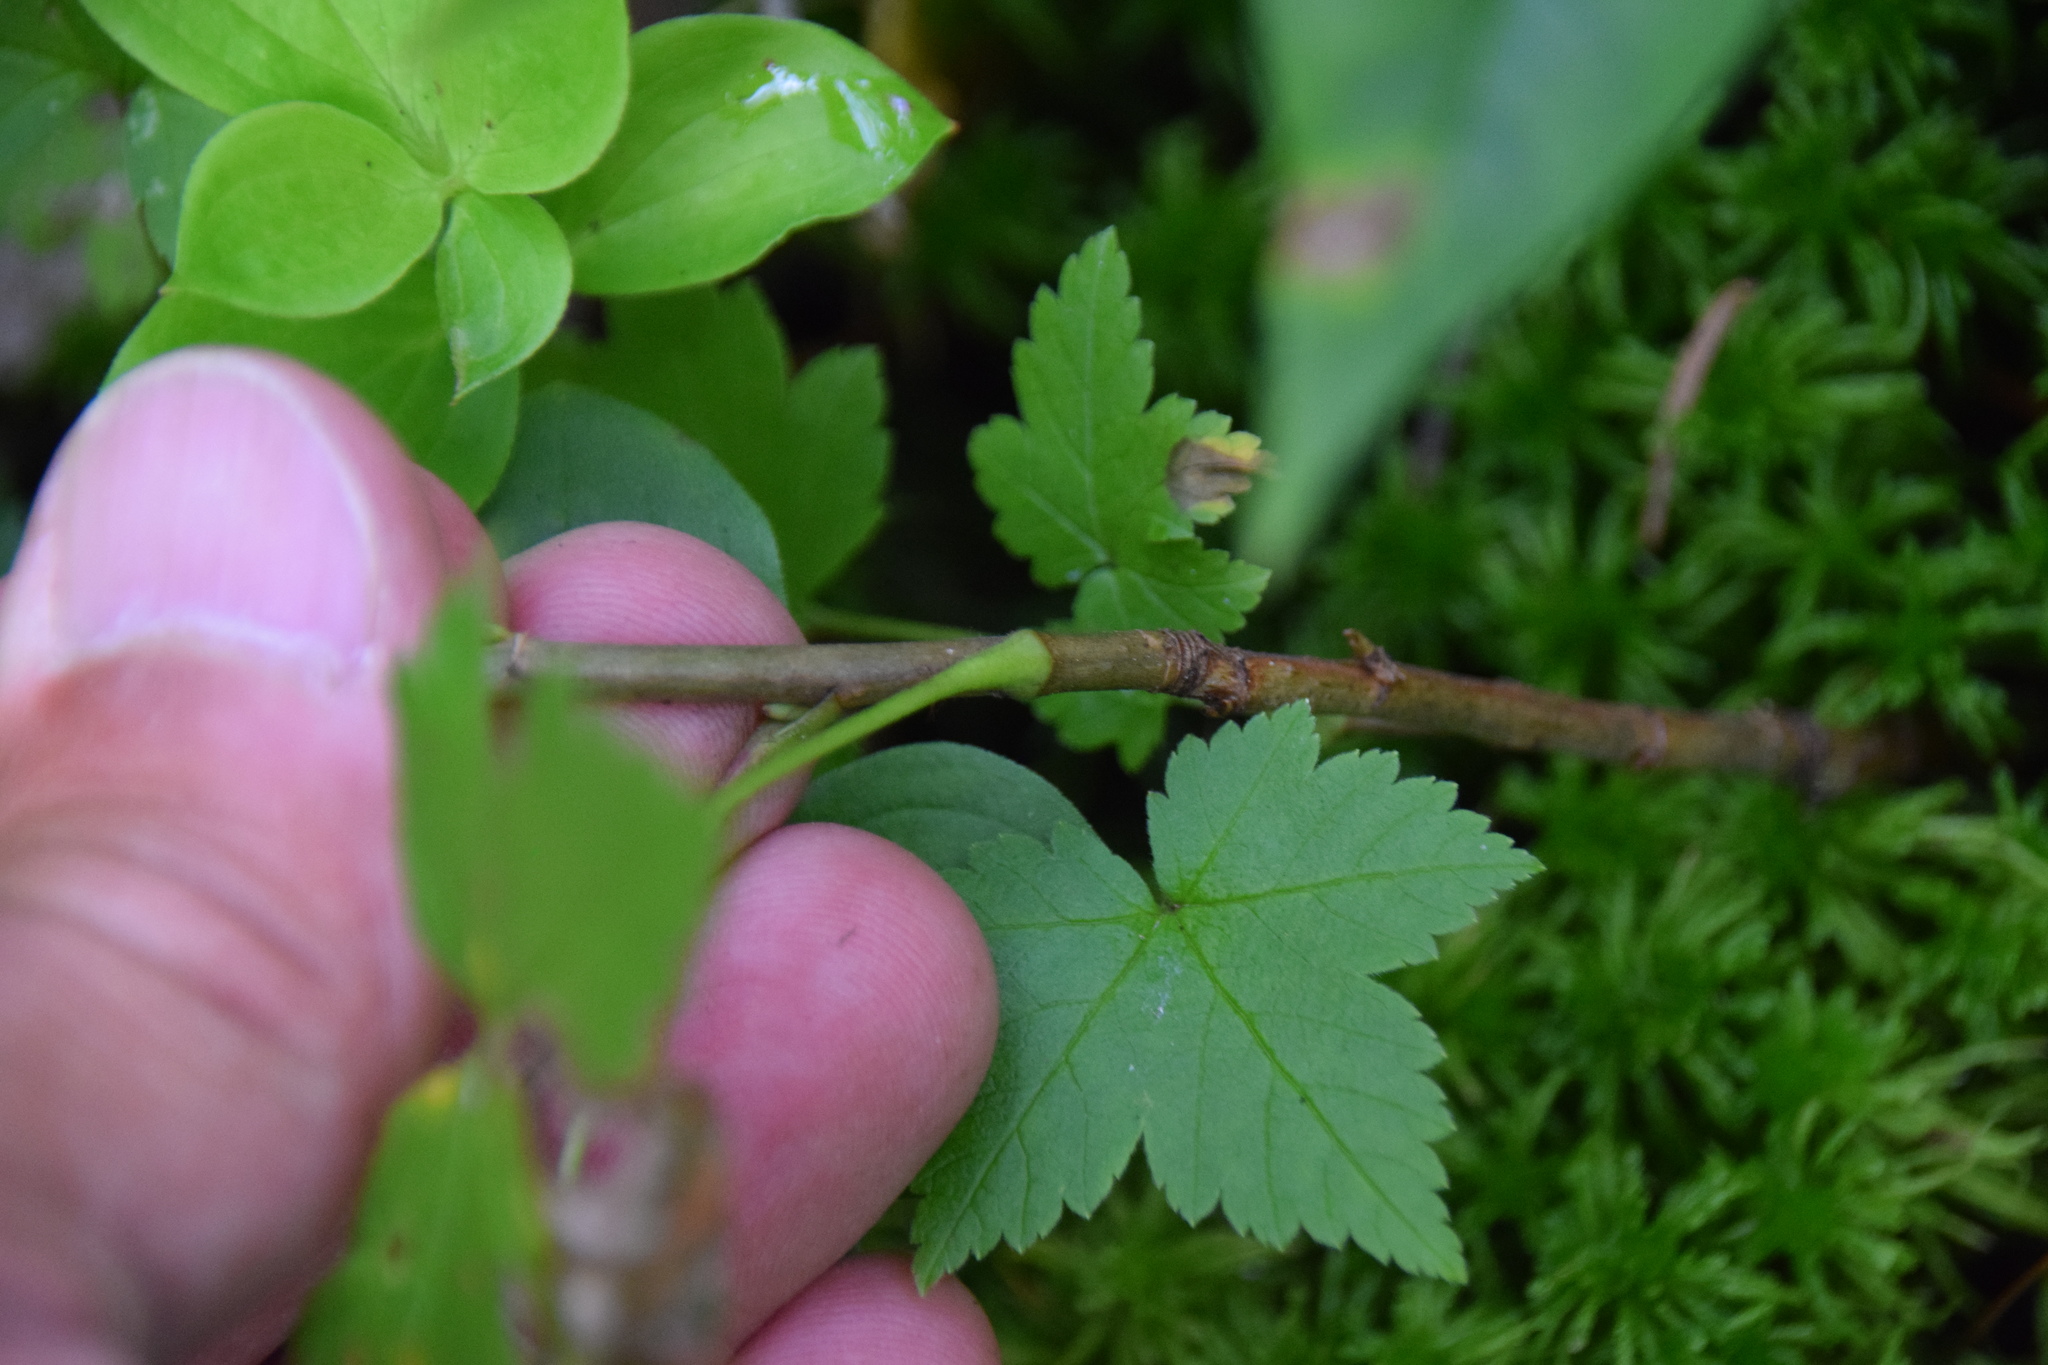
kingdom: Plantae
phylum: Tracheophyta
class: Magnoliopsida
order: Saxifragales
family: Grossulariaceae
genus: Ribes
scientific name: Ribes glandulosum
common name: Skunk currant
